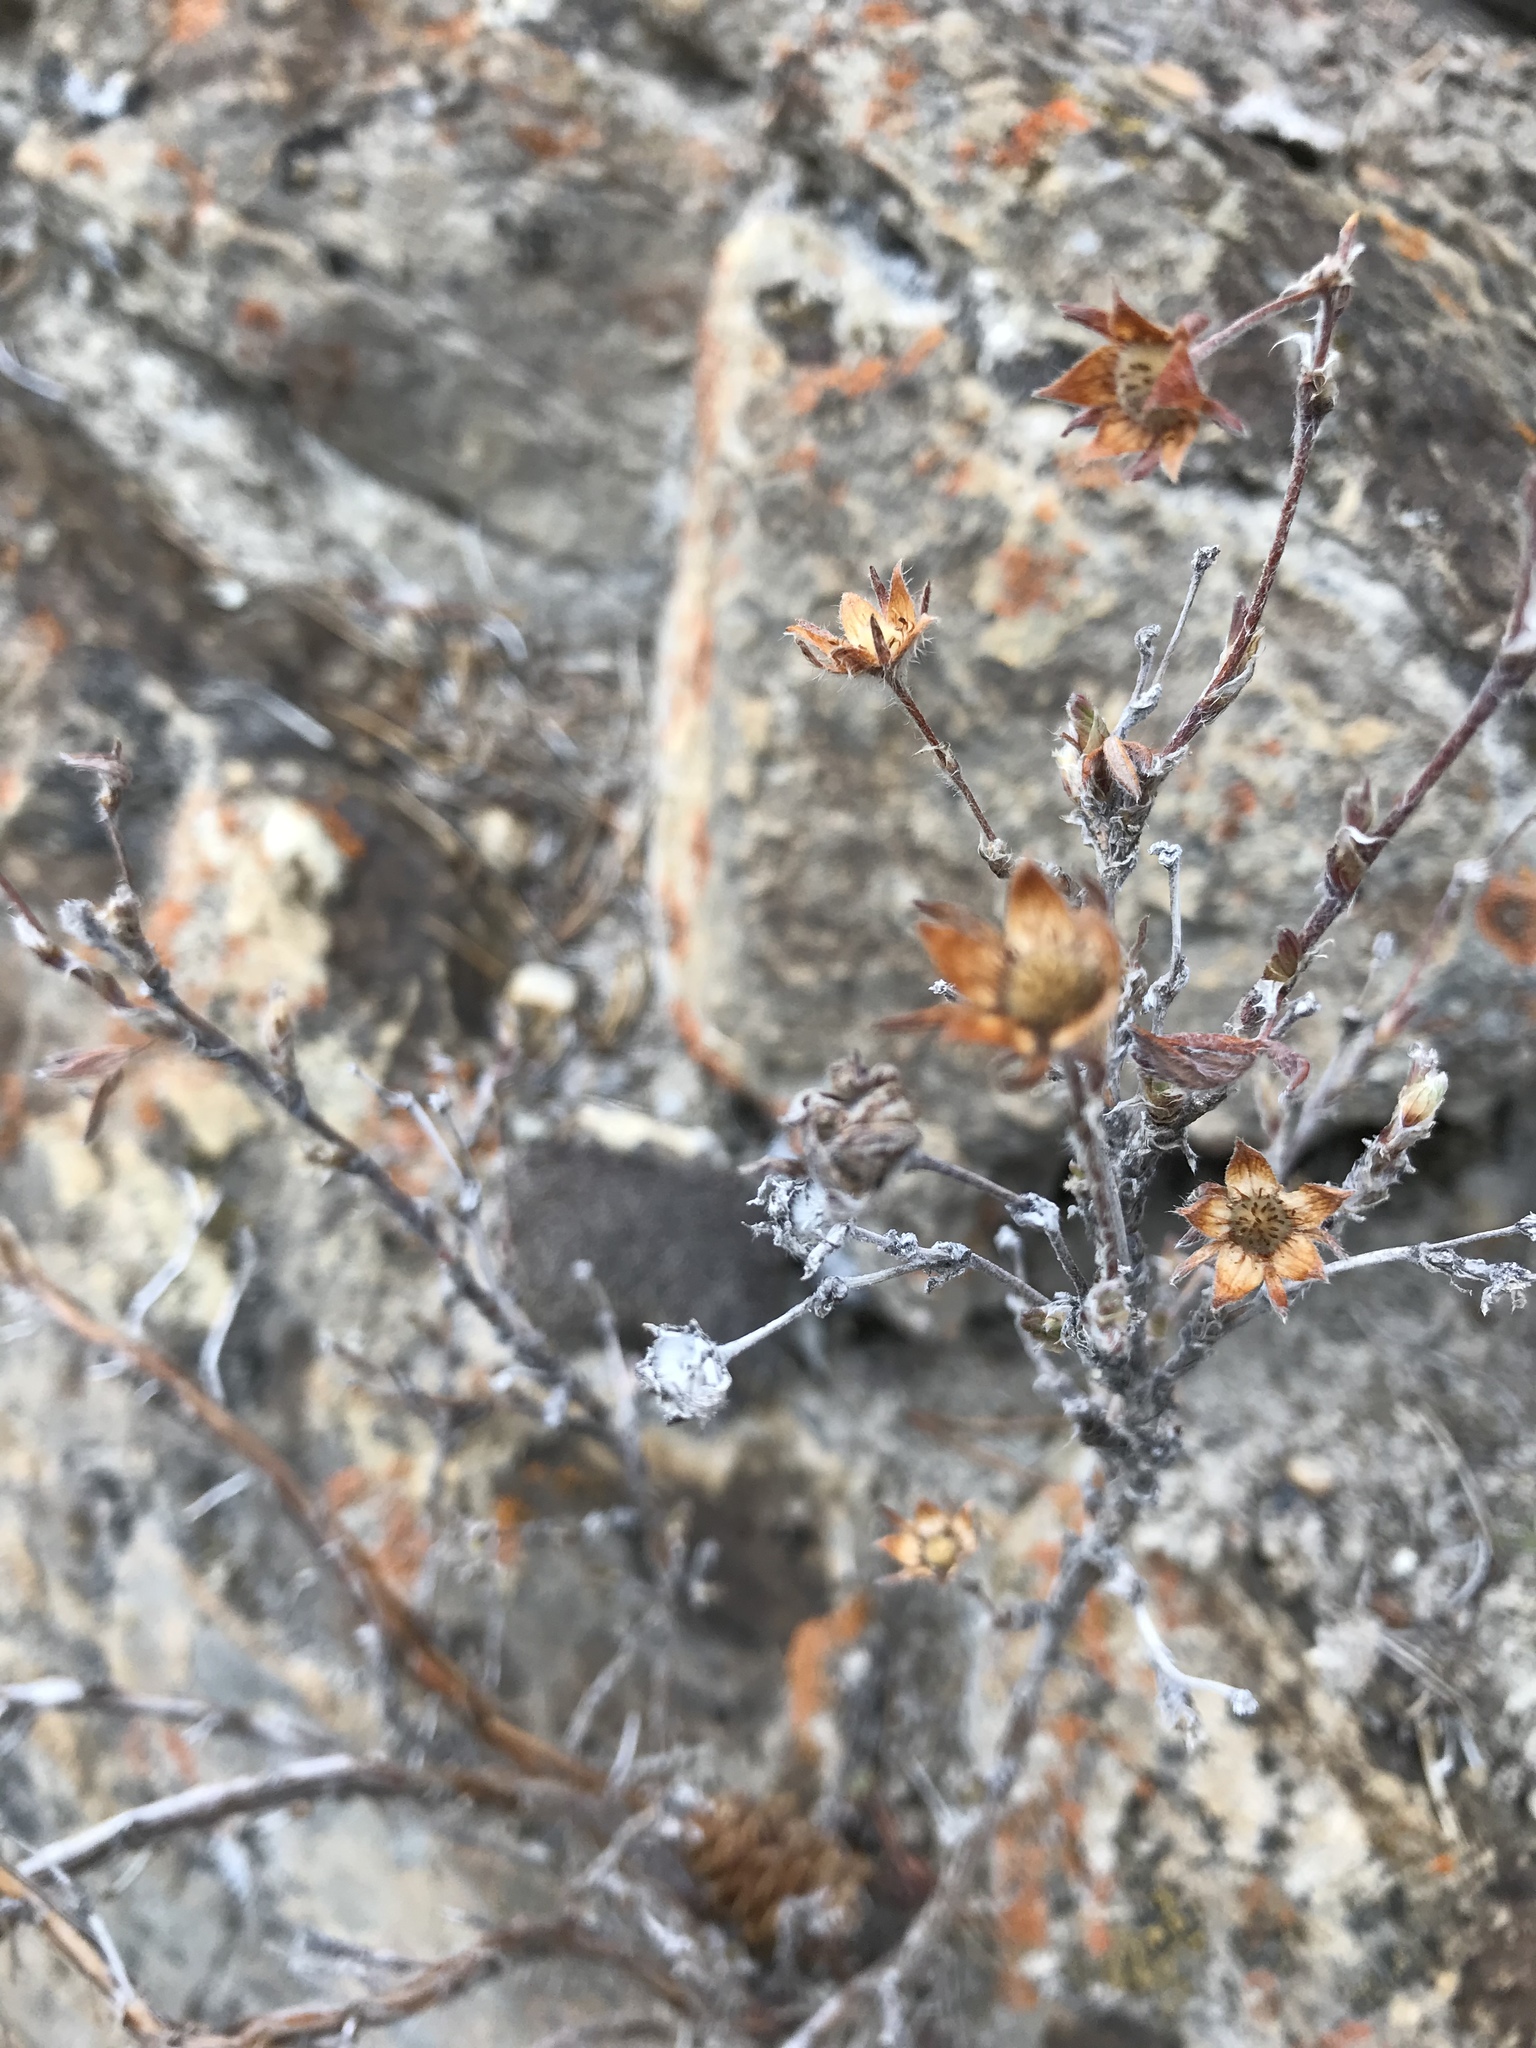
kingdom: Plantae
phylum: Tracheophyta
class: Magnoliopsida
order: Rosales
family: Rosaceae
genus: Dasiphora
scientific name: Dasiphora fruticosa
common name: Shrubby cinquefoil
